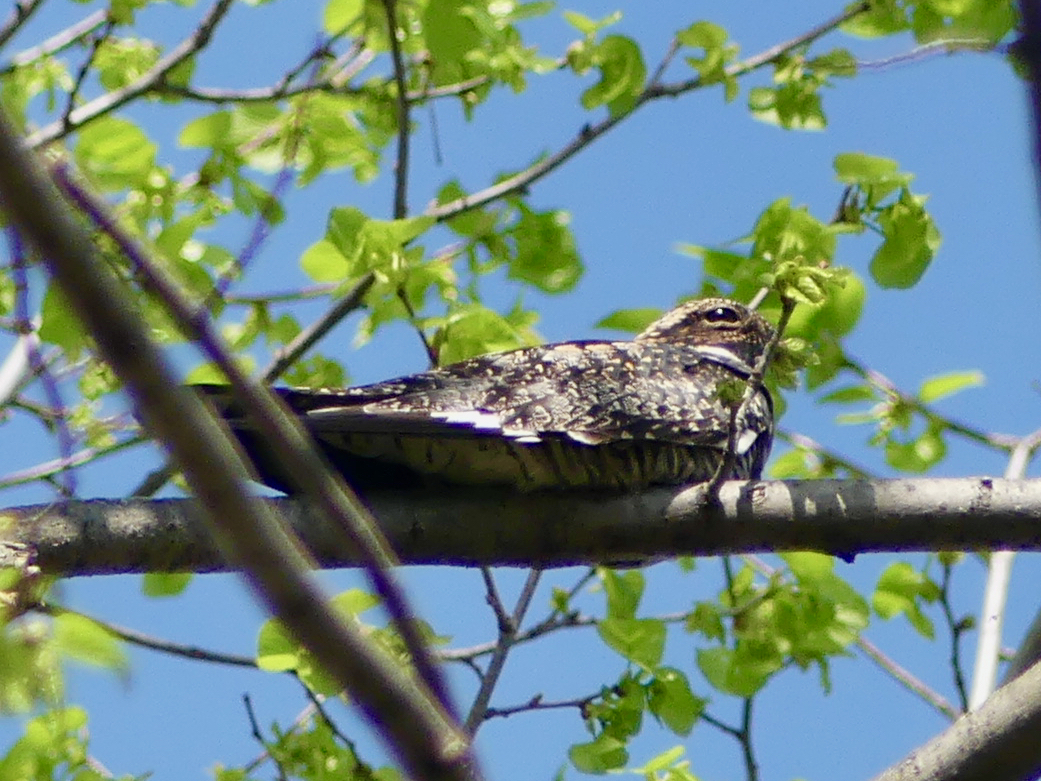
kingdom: Animalia
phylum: Chordata
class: Aves
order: Caprimulgiformes
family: Caprimulgidae
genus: Chordeiles
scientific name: Chordeiles minor
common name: Common nighthawk
